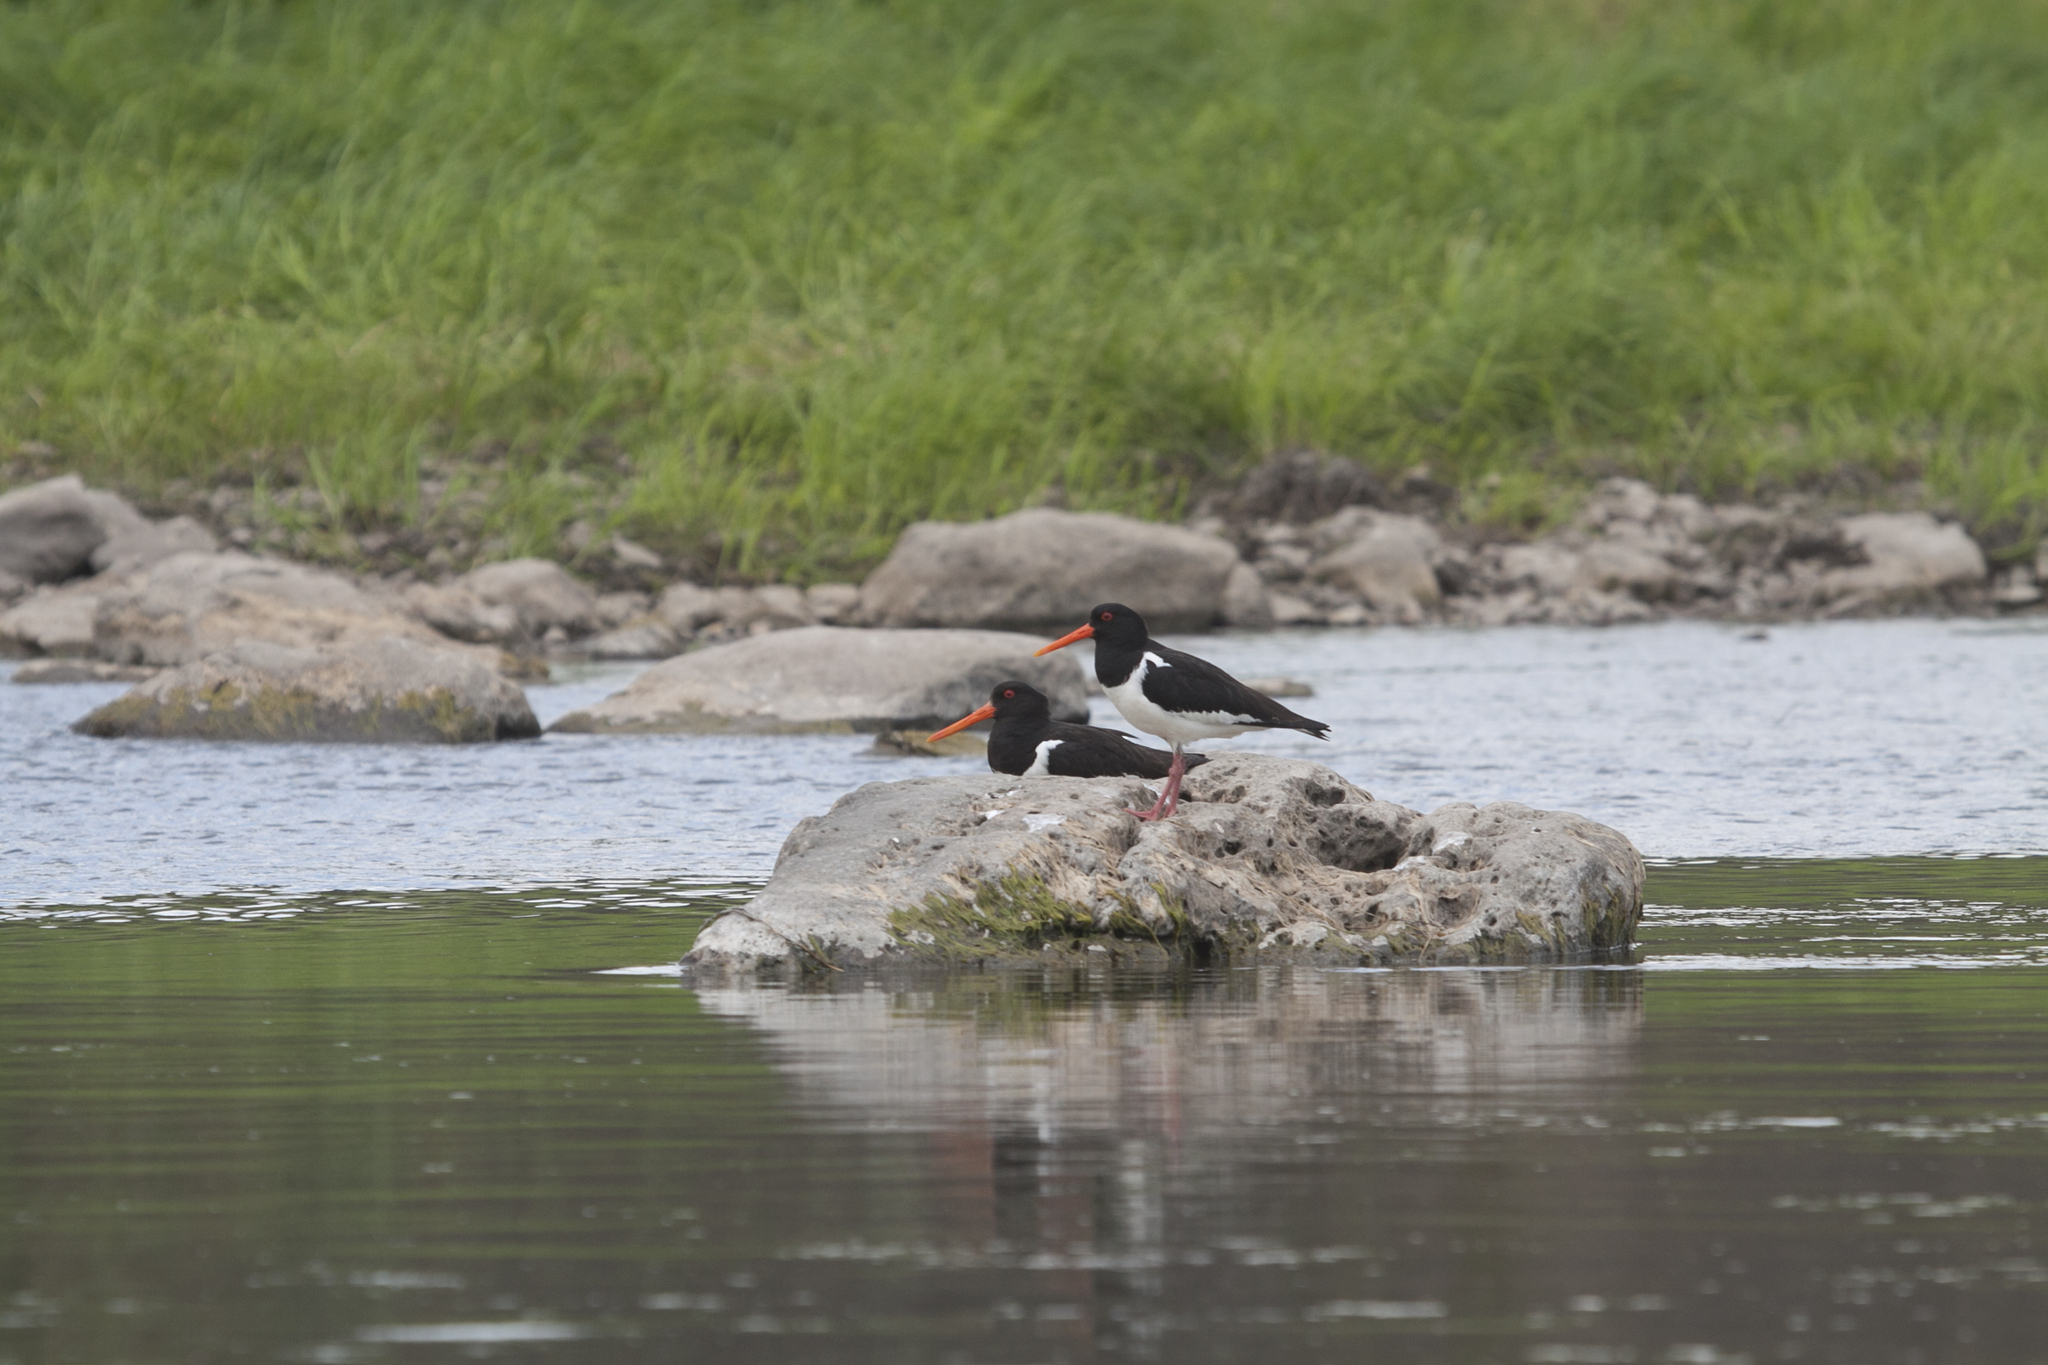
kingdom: Animalia
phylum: Chordata
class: Aves
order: Charadriiformes
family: Haematopodidae
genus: Haematopus
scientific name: Haematopus ostralegus
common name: Eurasian oystercatcher
